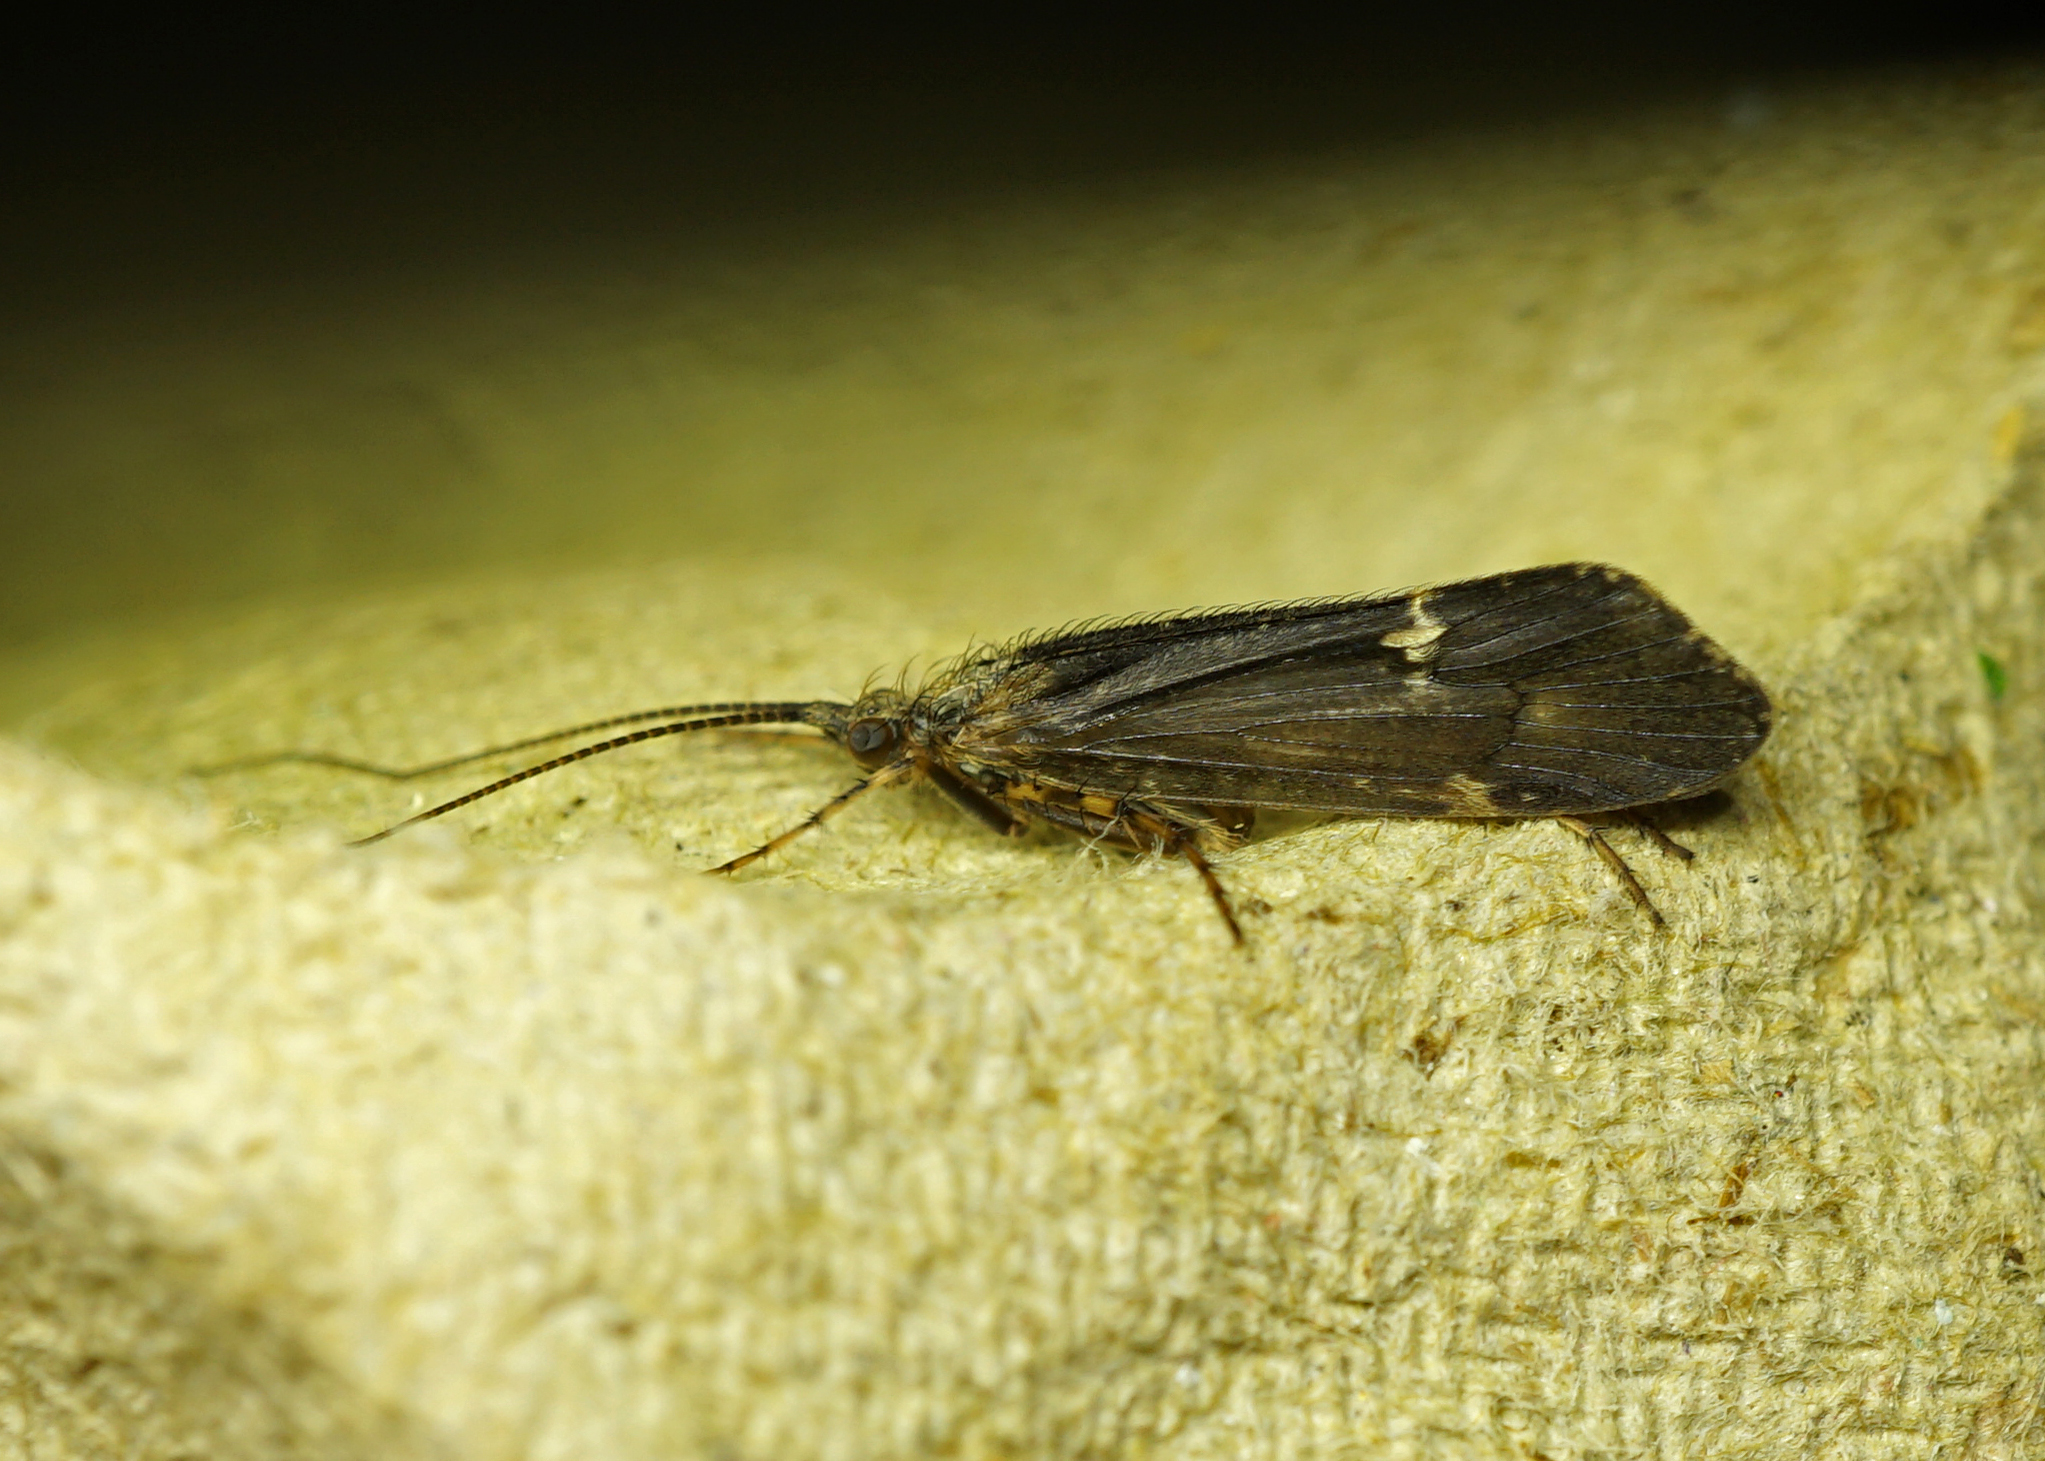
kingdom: Animalia
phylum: Arthropoda
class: Insecta
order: Trichoptera
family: Limnephilidae
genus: Limnephilus
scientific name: Limnephilus sparsus
